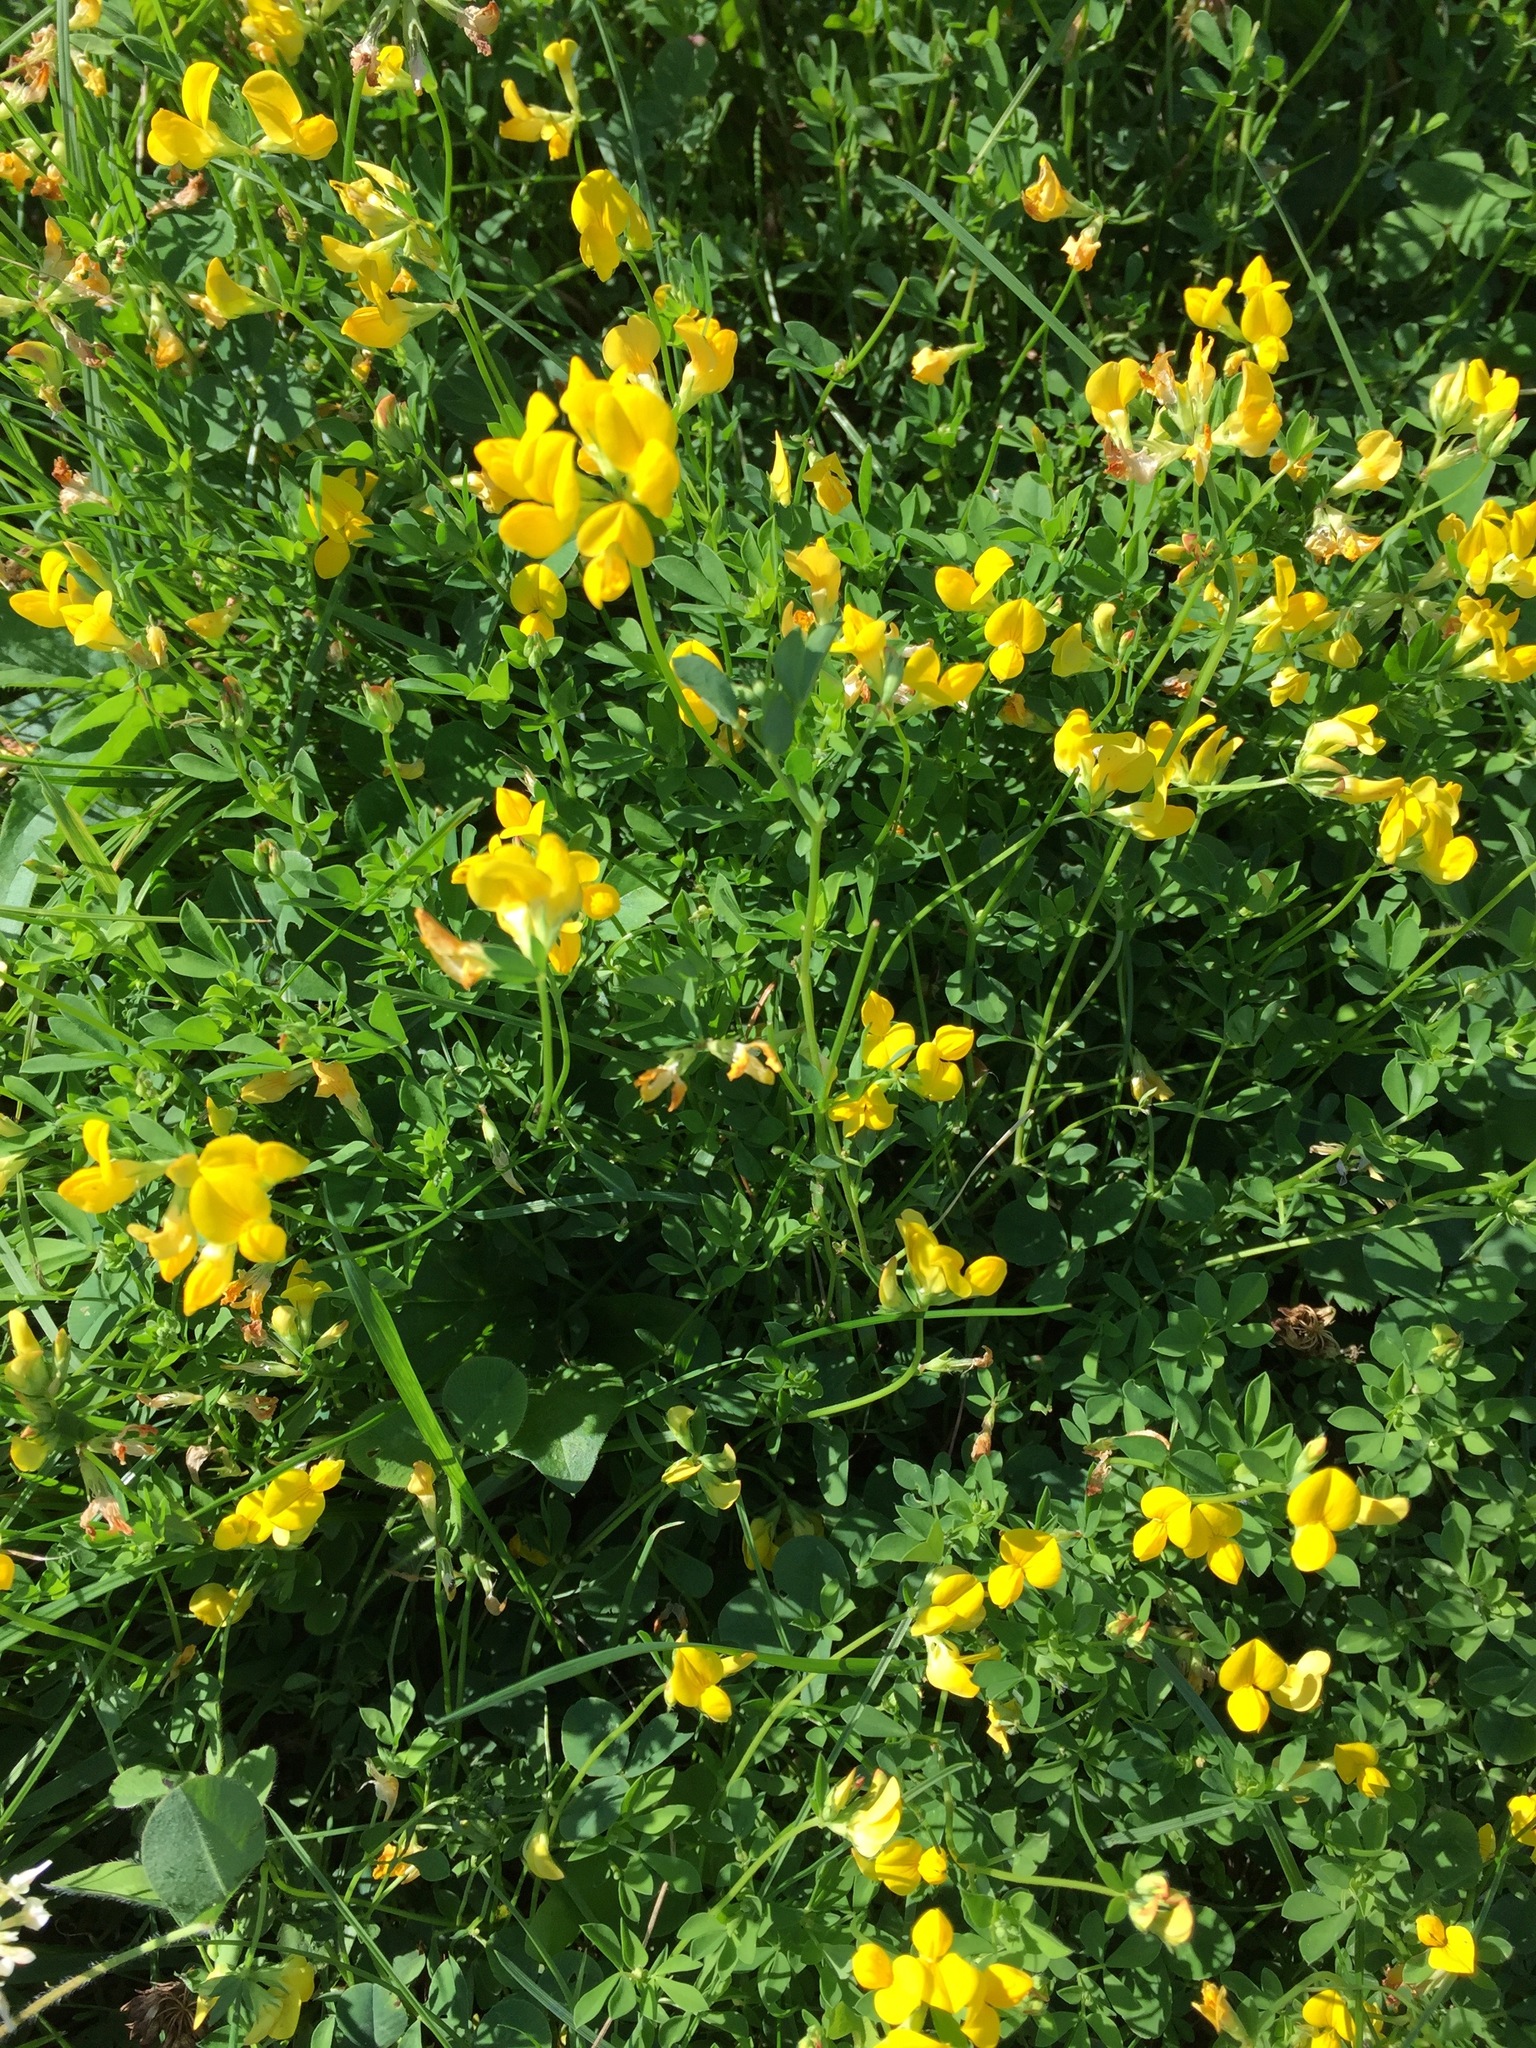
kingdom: Plantae
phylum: Tracheophyta
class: Magnoliopsida
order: Fabales
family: Fabaceae
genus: Lotus
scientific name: Lotus corniculatus
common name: Common bird's-foot-trefoil
